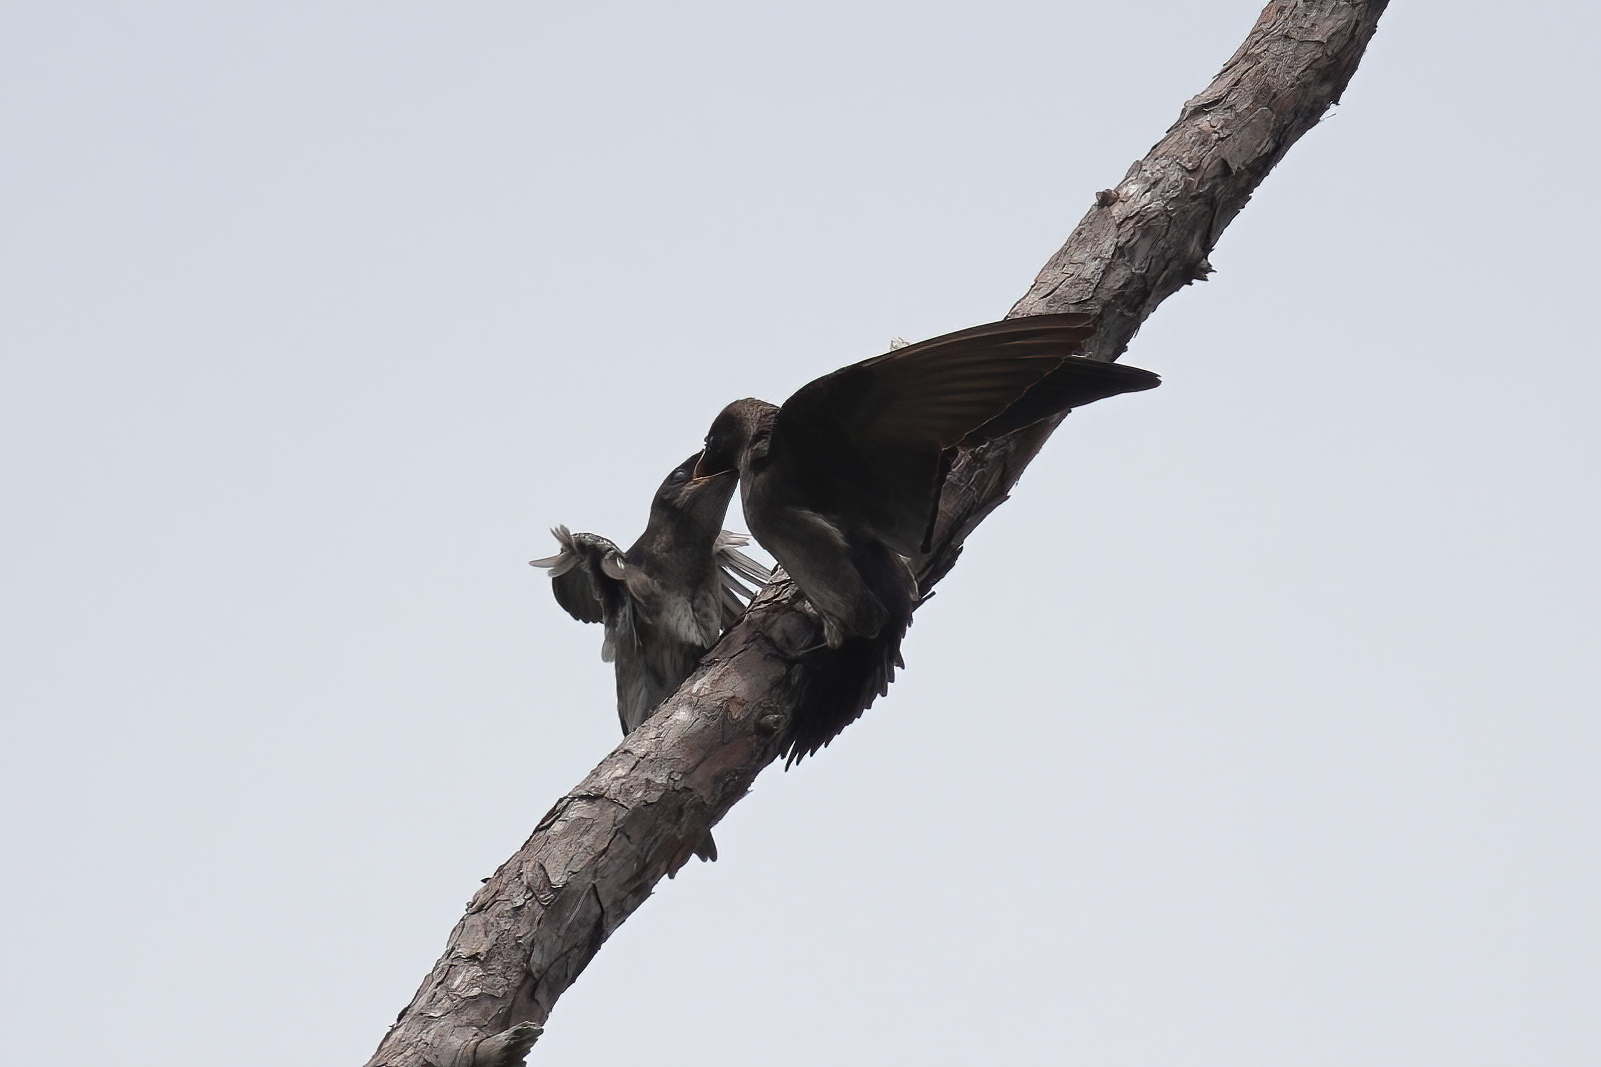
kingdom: Animalia
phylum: Chordata
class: Aves
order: Passeriformes
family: Hirundinidae
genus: Progne
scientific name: Progne subis
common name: Purple martin
